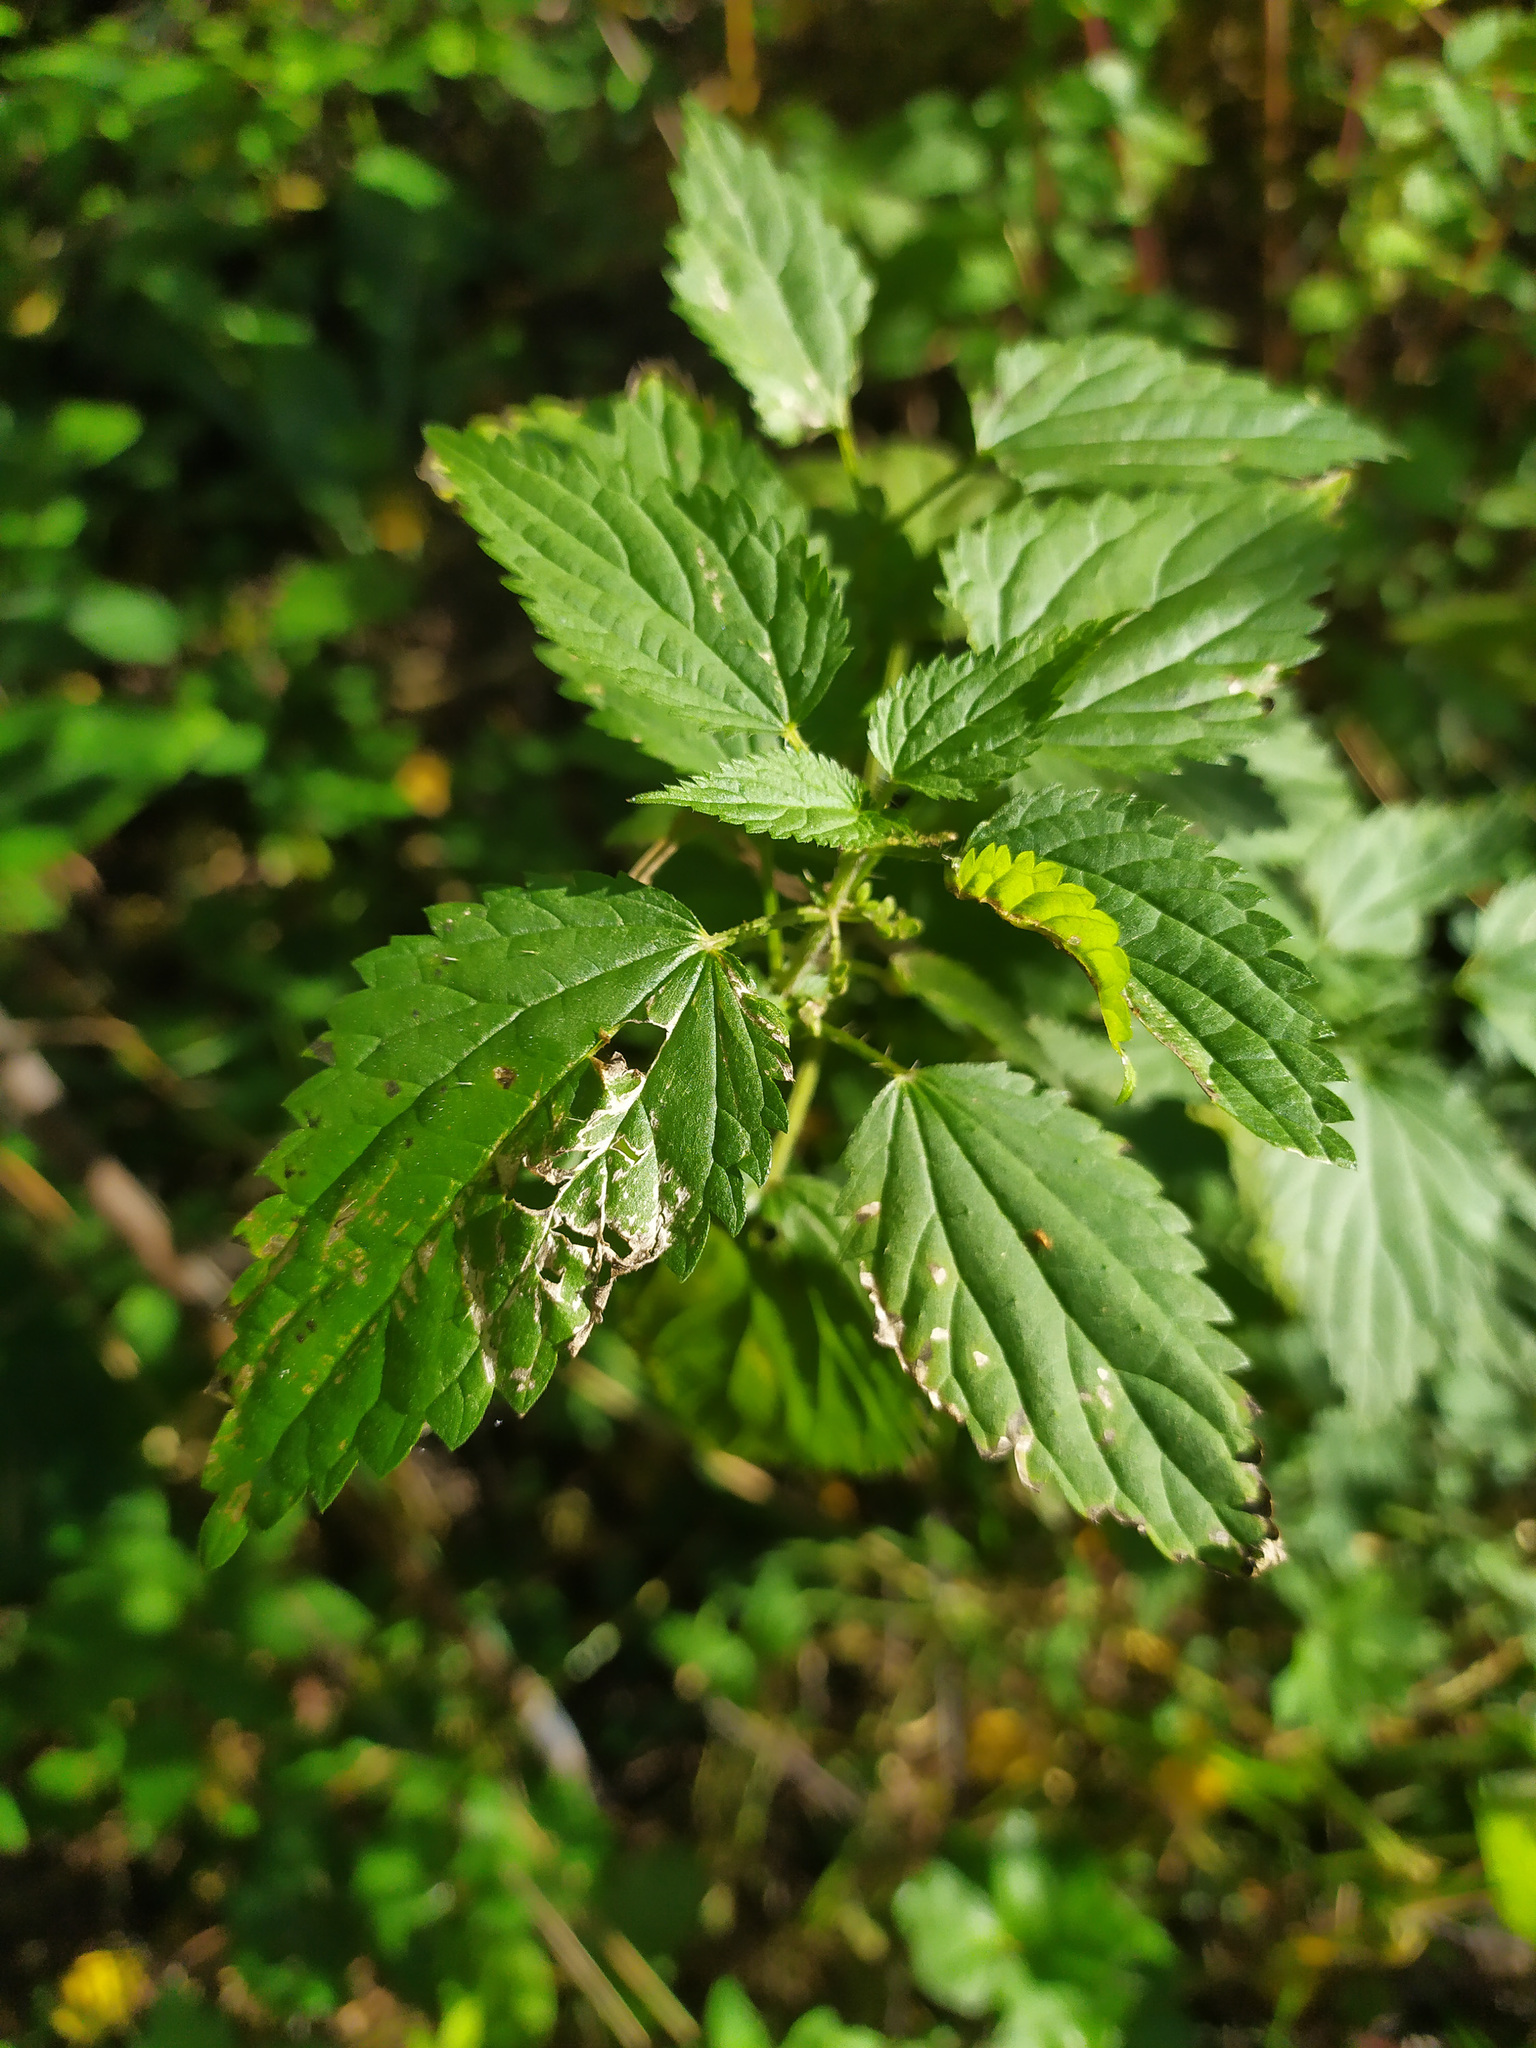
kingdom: Plantae
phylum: Tracheophyta
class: Magnoliopsida
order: Rosales
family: Urticaceae
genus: Urtica
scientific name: Urtica dioica
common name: Common nettle
